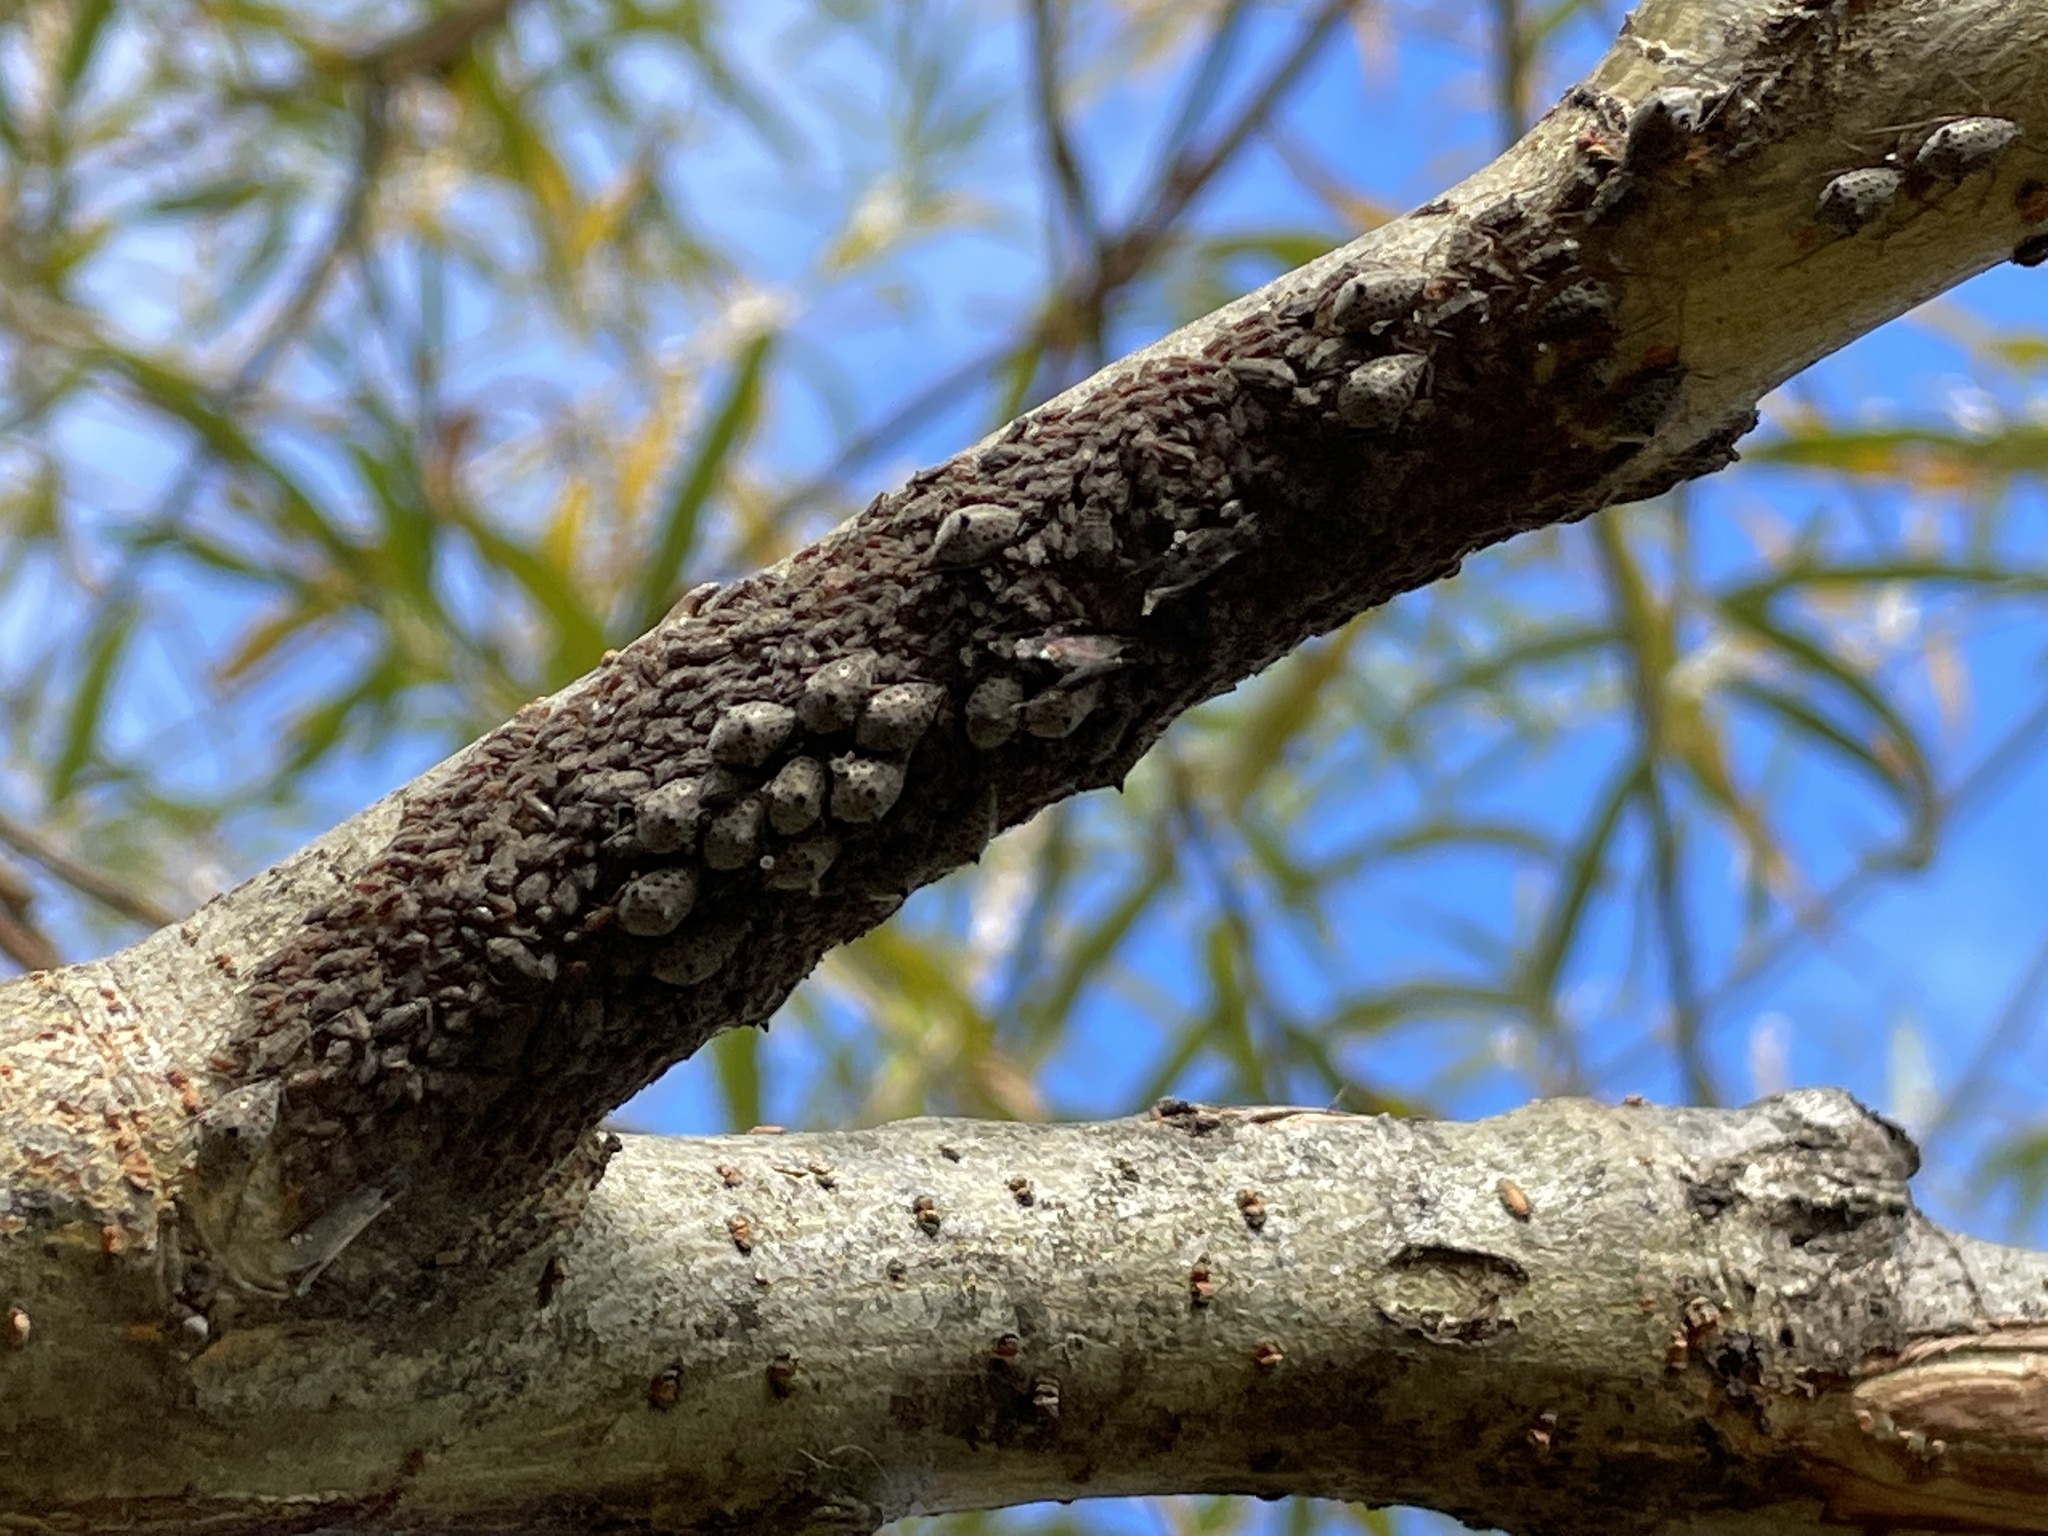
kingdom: Animalia
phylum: Arthropoda
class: Insecta
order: Hemiptera
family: Aphididae
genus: Tuberolachnus
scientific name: Tuberolachnus salignus
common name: Giant willow aphid
